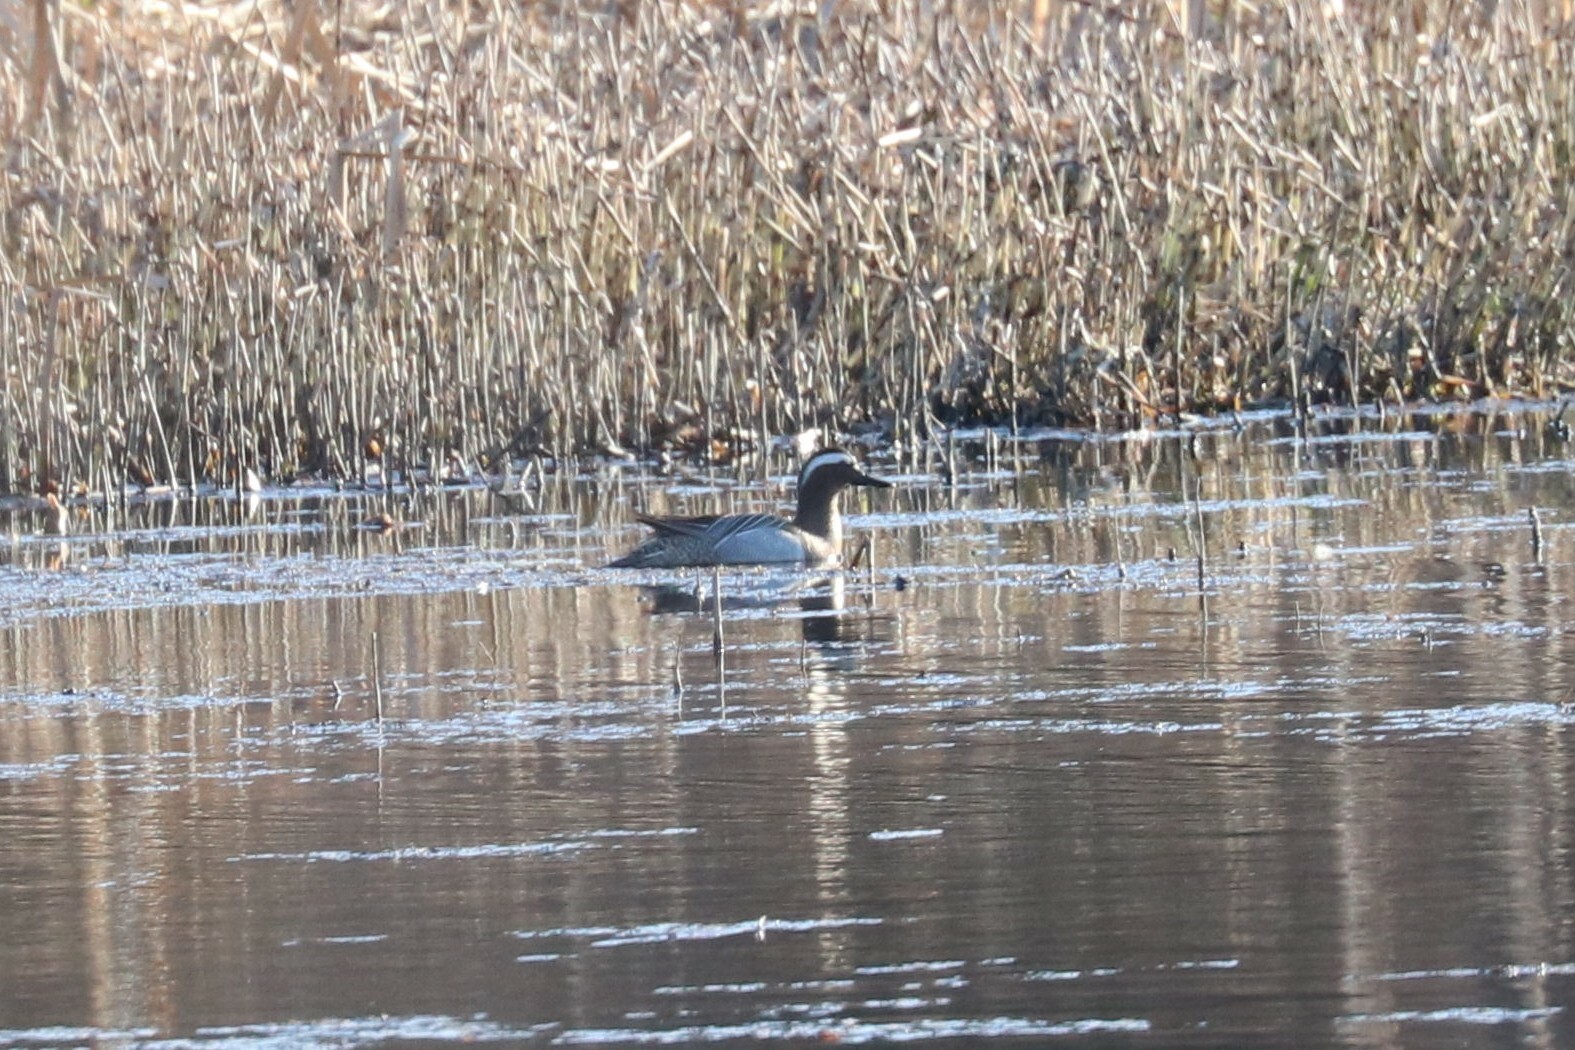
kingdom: Animalia
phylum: Chordata
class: Aves
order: Anseriformes
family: Anatidae
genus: Spatula
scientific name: Spatula querquedula
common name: Garganey
